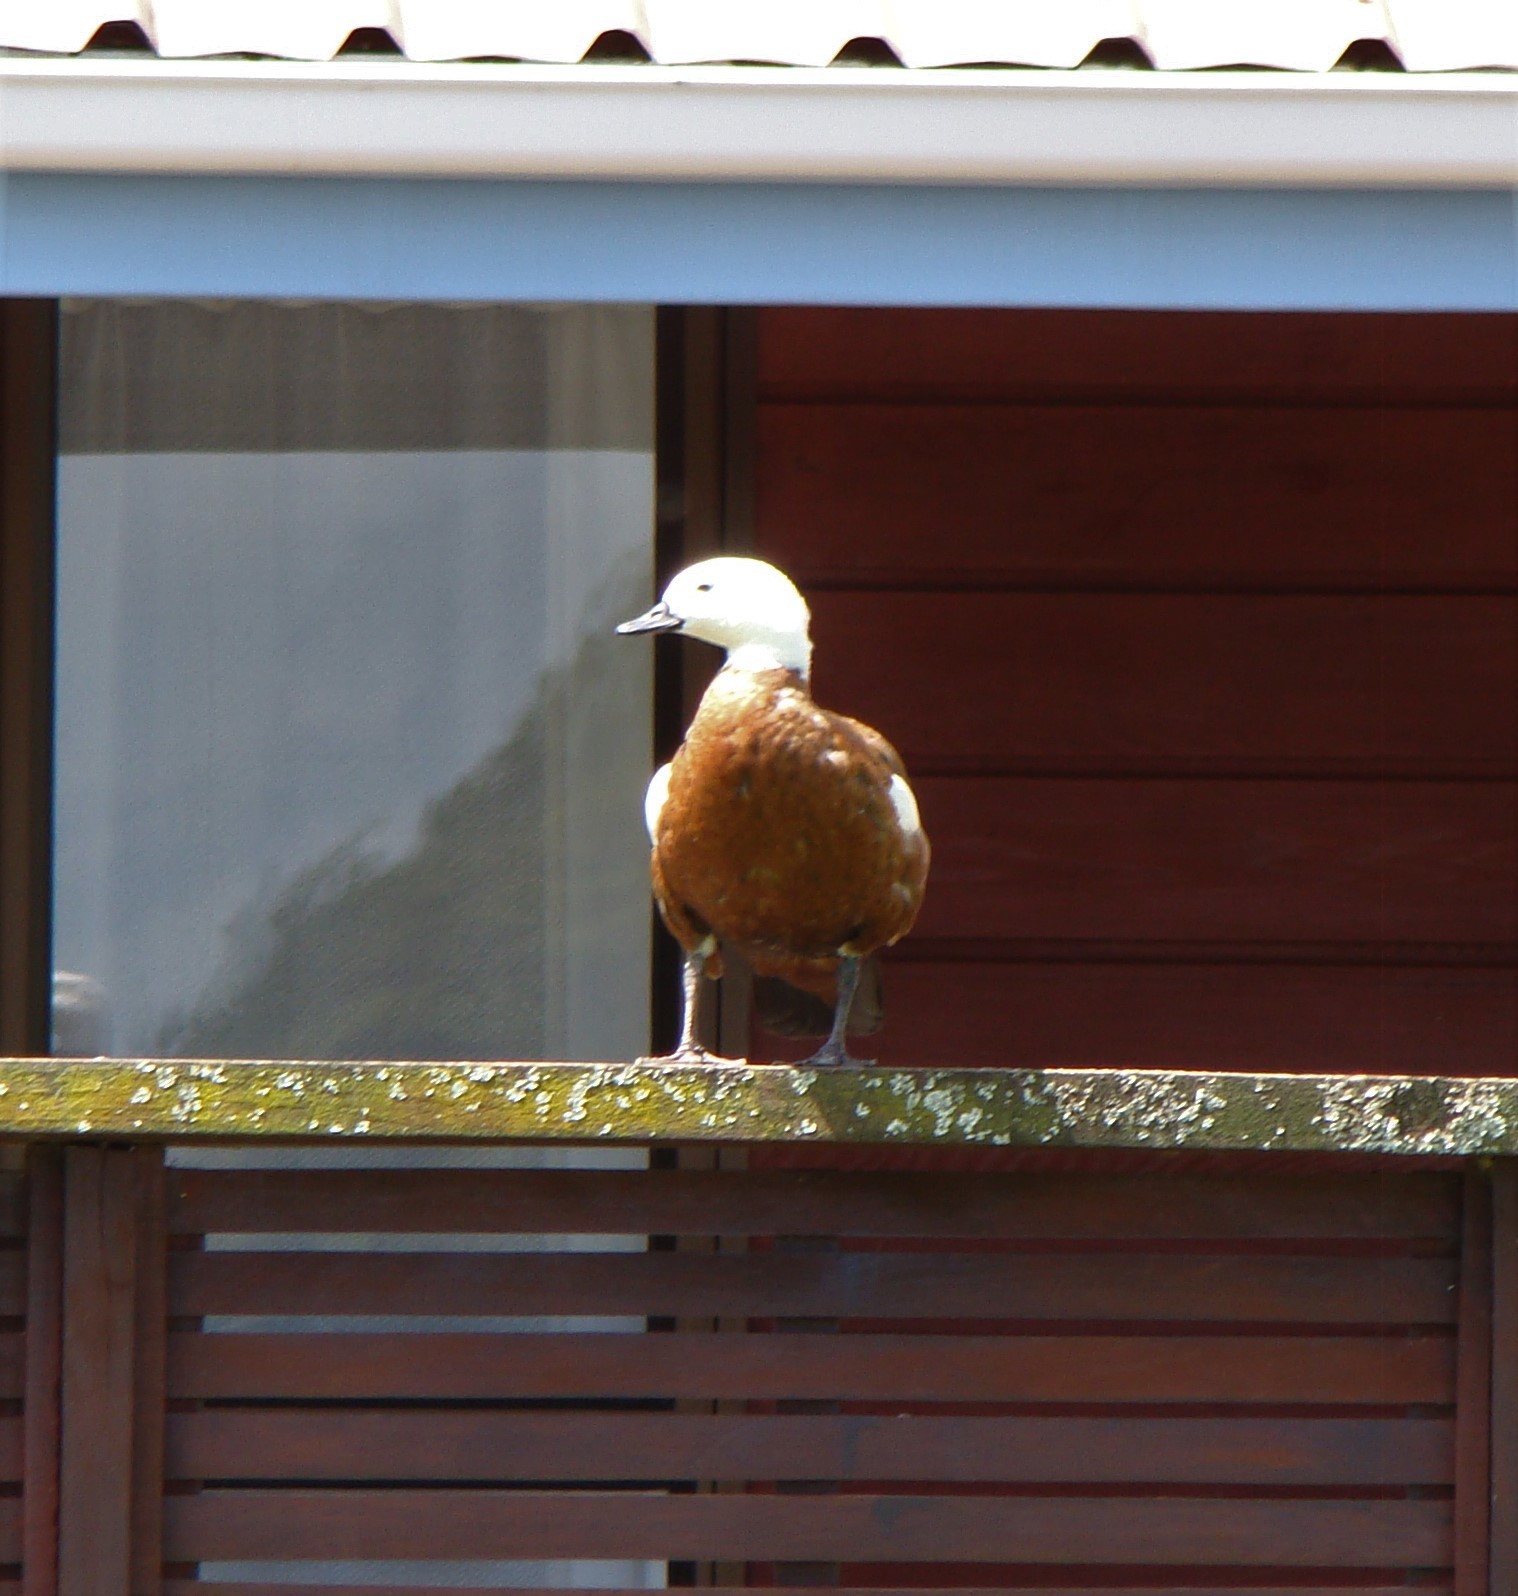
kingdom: Animalia
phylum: Chordata
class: Aves
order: Anseriformes
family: Anatidae
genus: Tadorna
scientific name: Tadorna variegata
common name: Paradise shelduck
